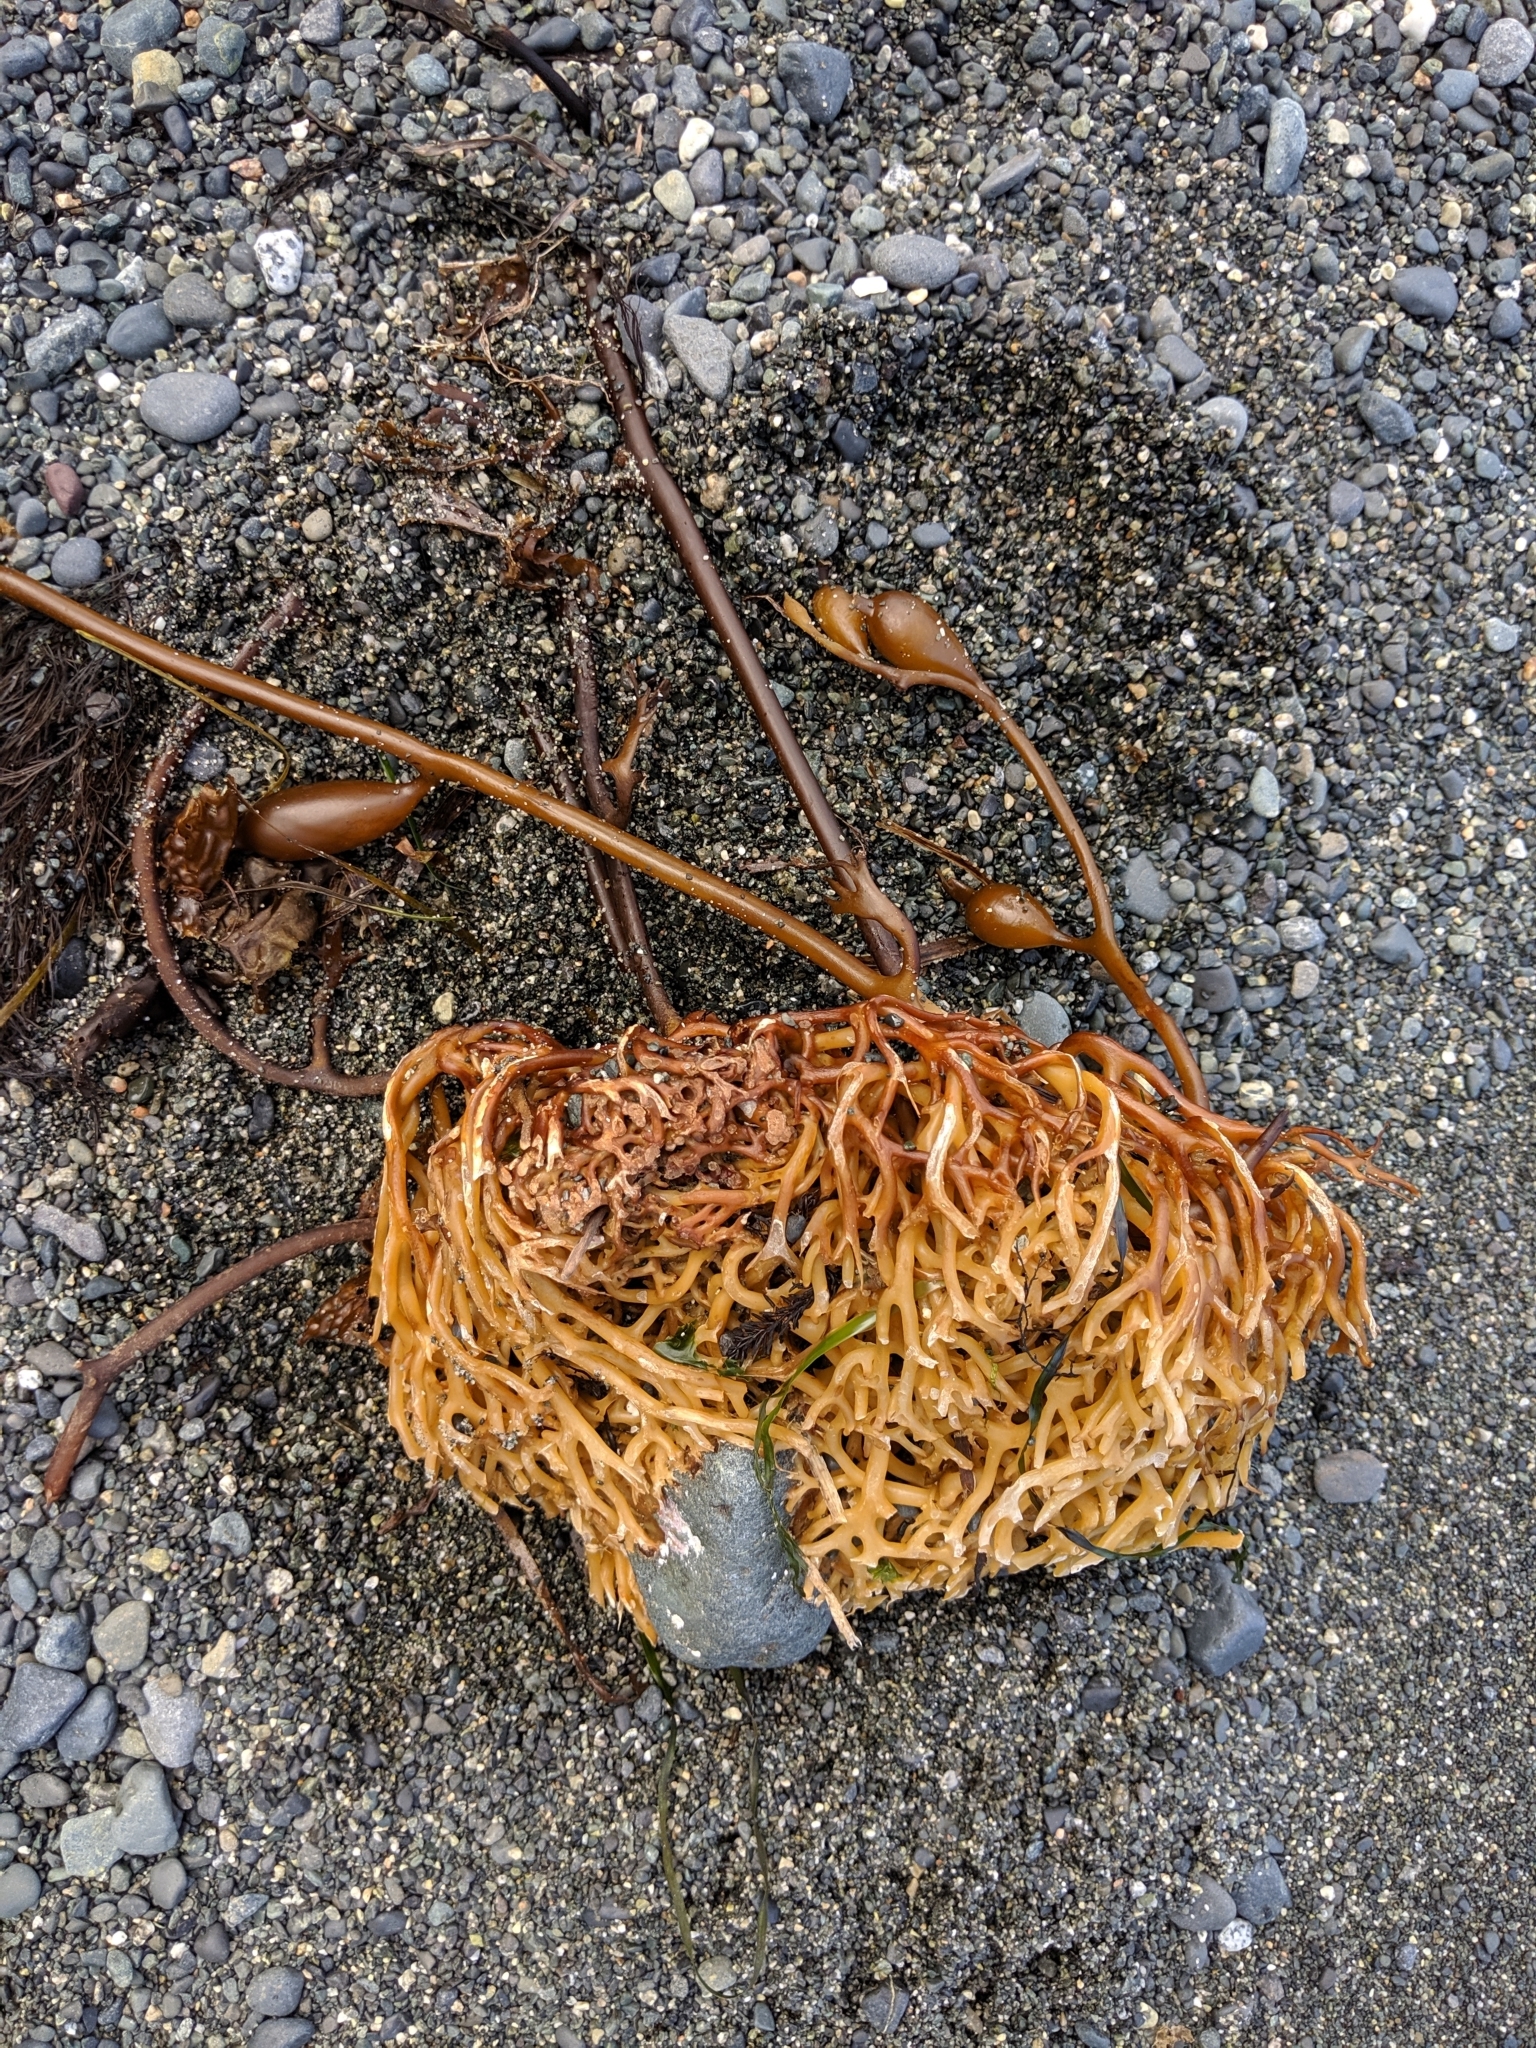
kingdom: Chromista
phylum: Ochrophyta
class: Phaeophyceae
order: Laminariales
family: Laminariaceae
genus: Macrocystis
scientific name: Macrocystis pyrifera
